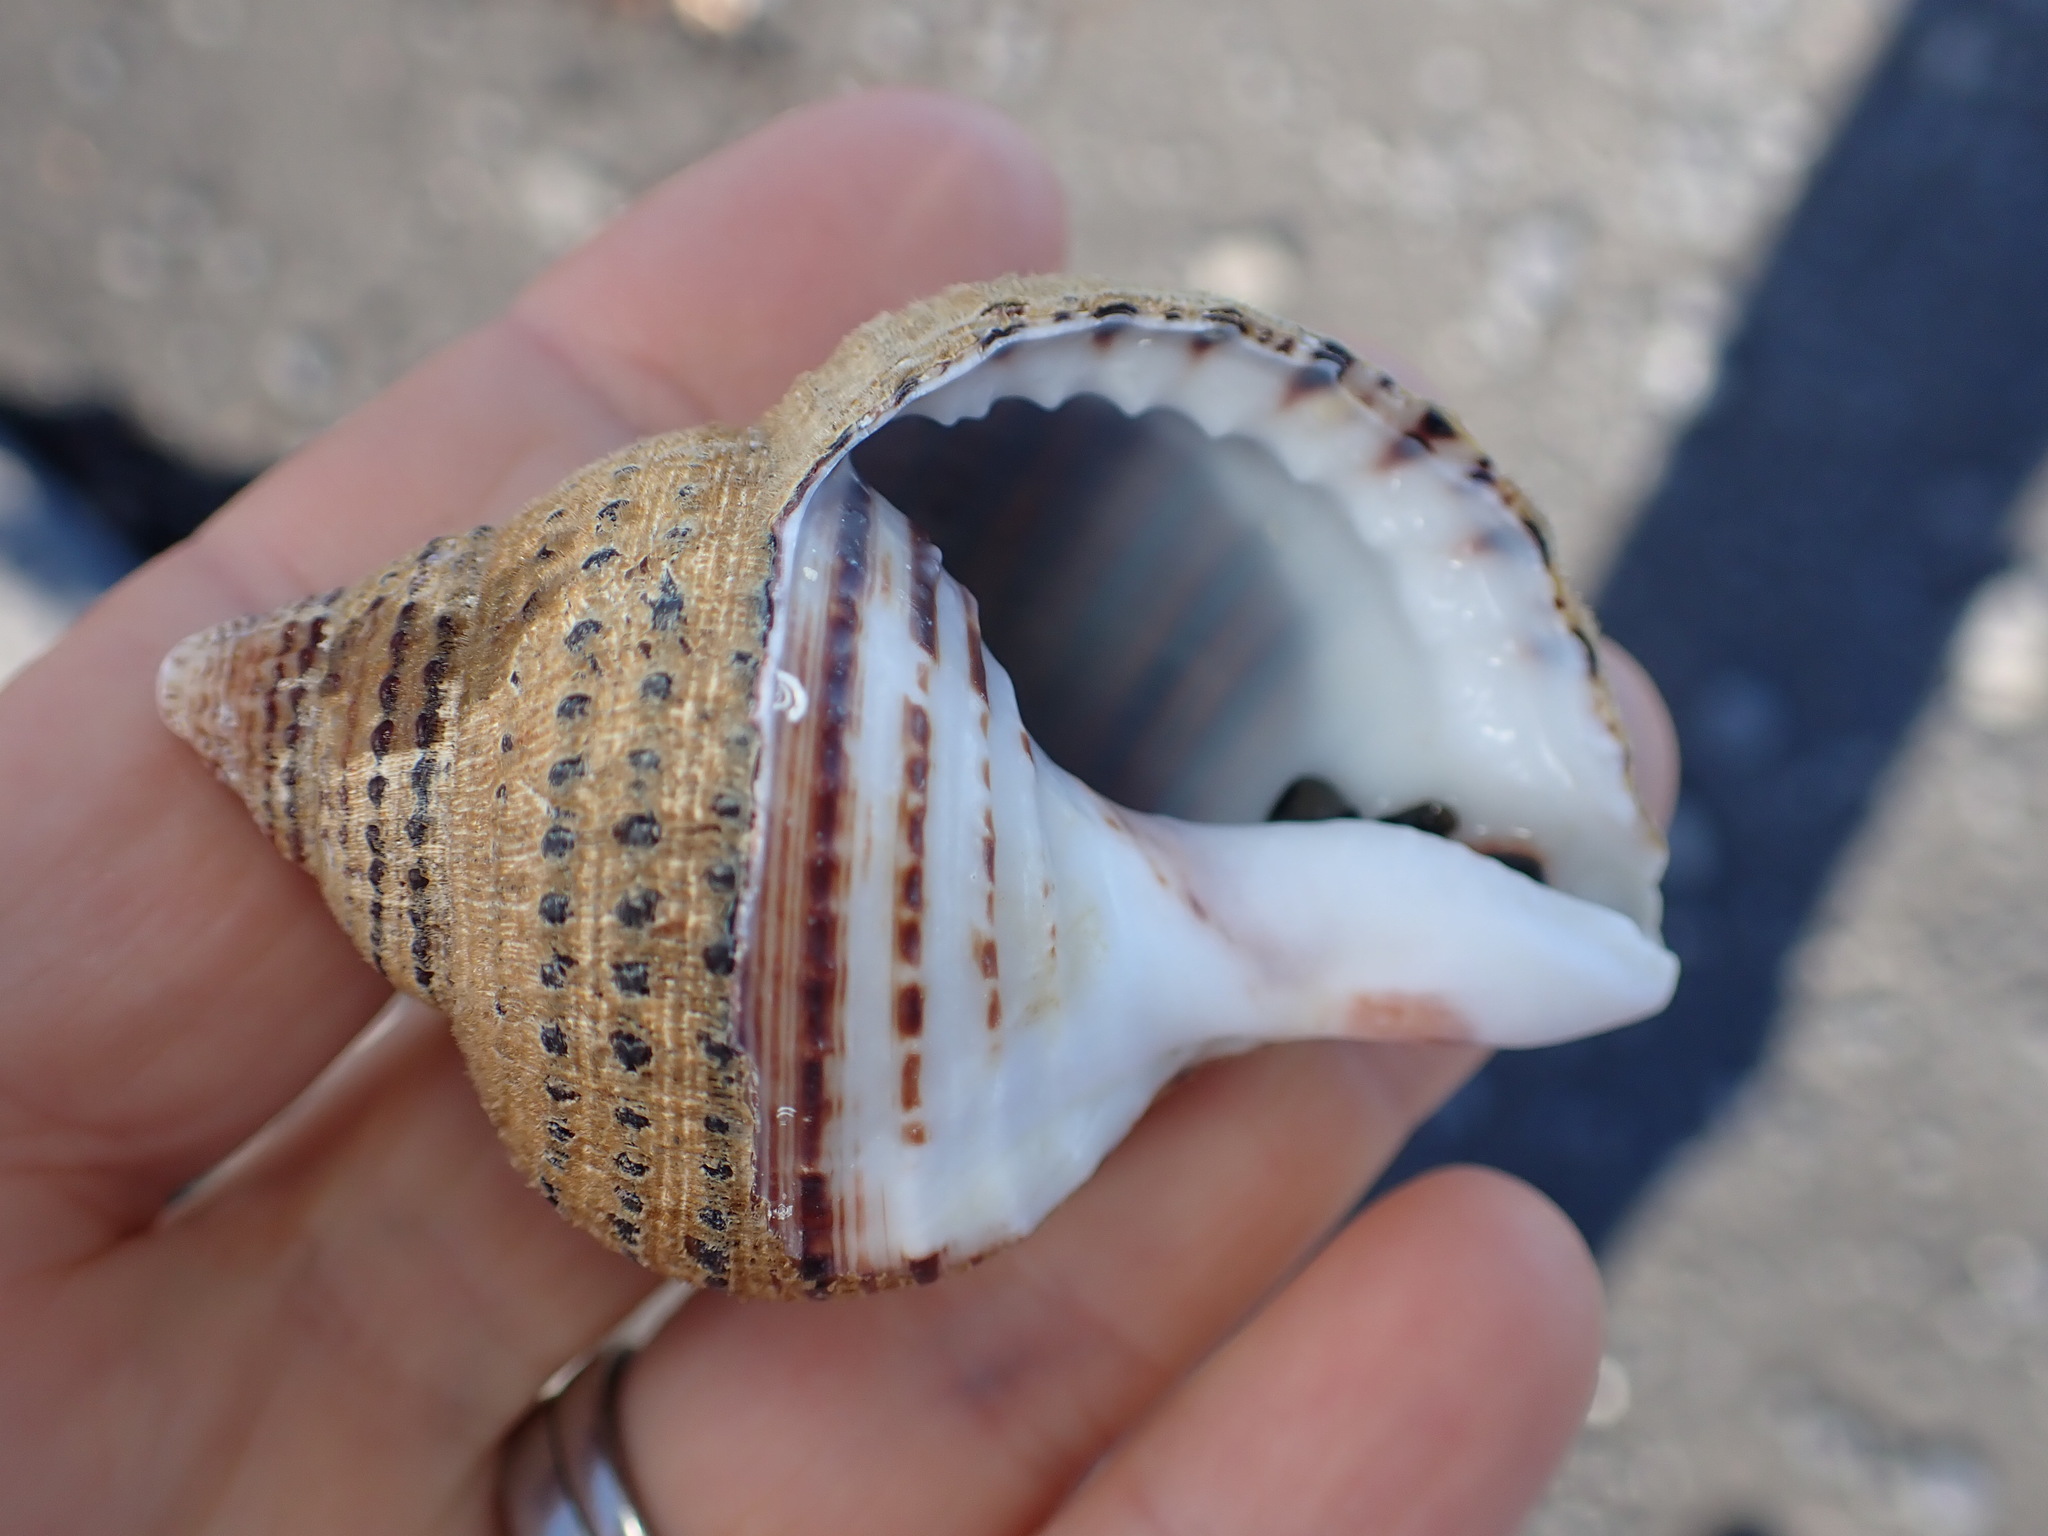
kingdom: Animalia
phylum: Mollusca
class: Gastropoda
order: Littorinimorpha
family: Cymatiidae
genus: Argobuccinum
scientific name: Argobuccinum pustulosum
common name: Pustular triton
